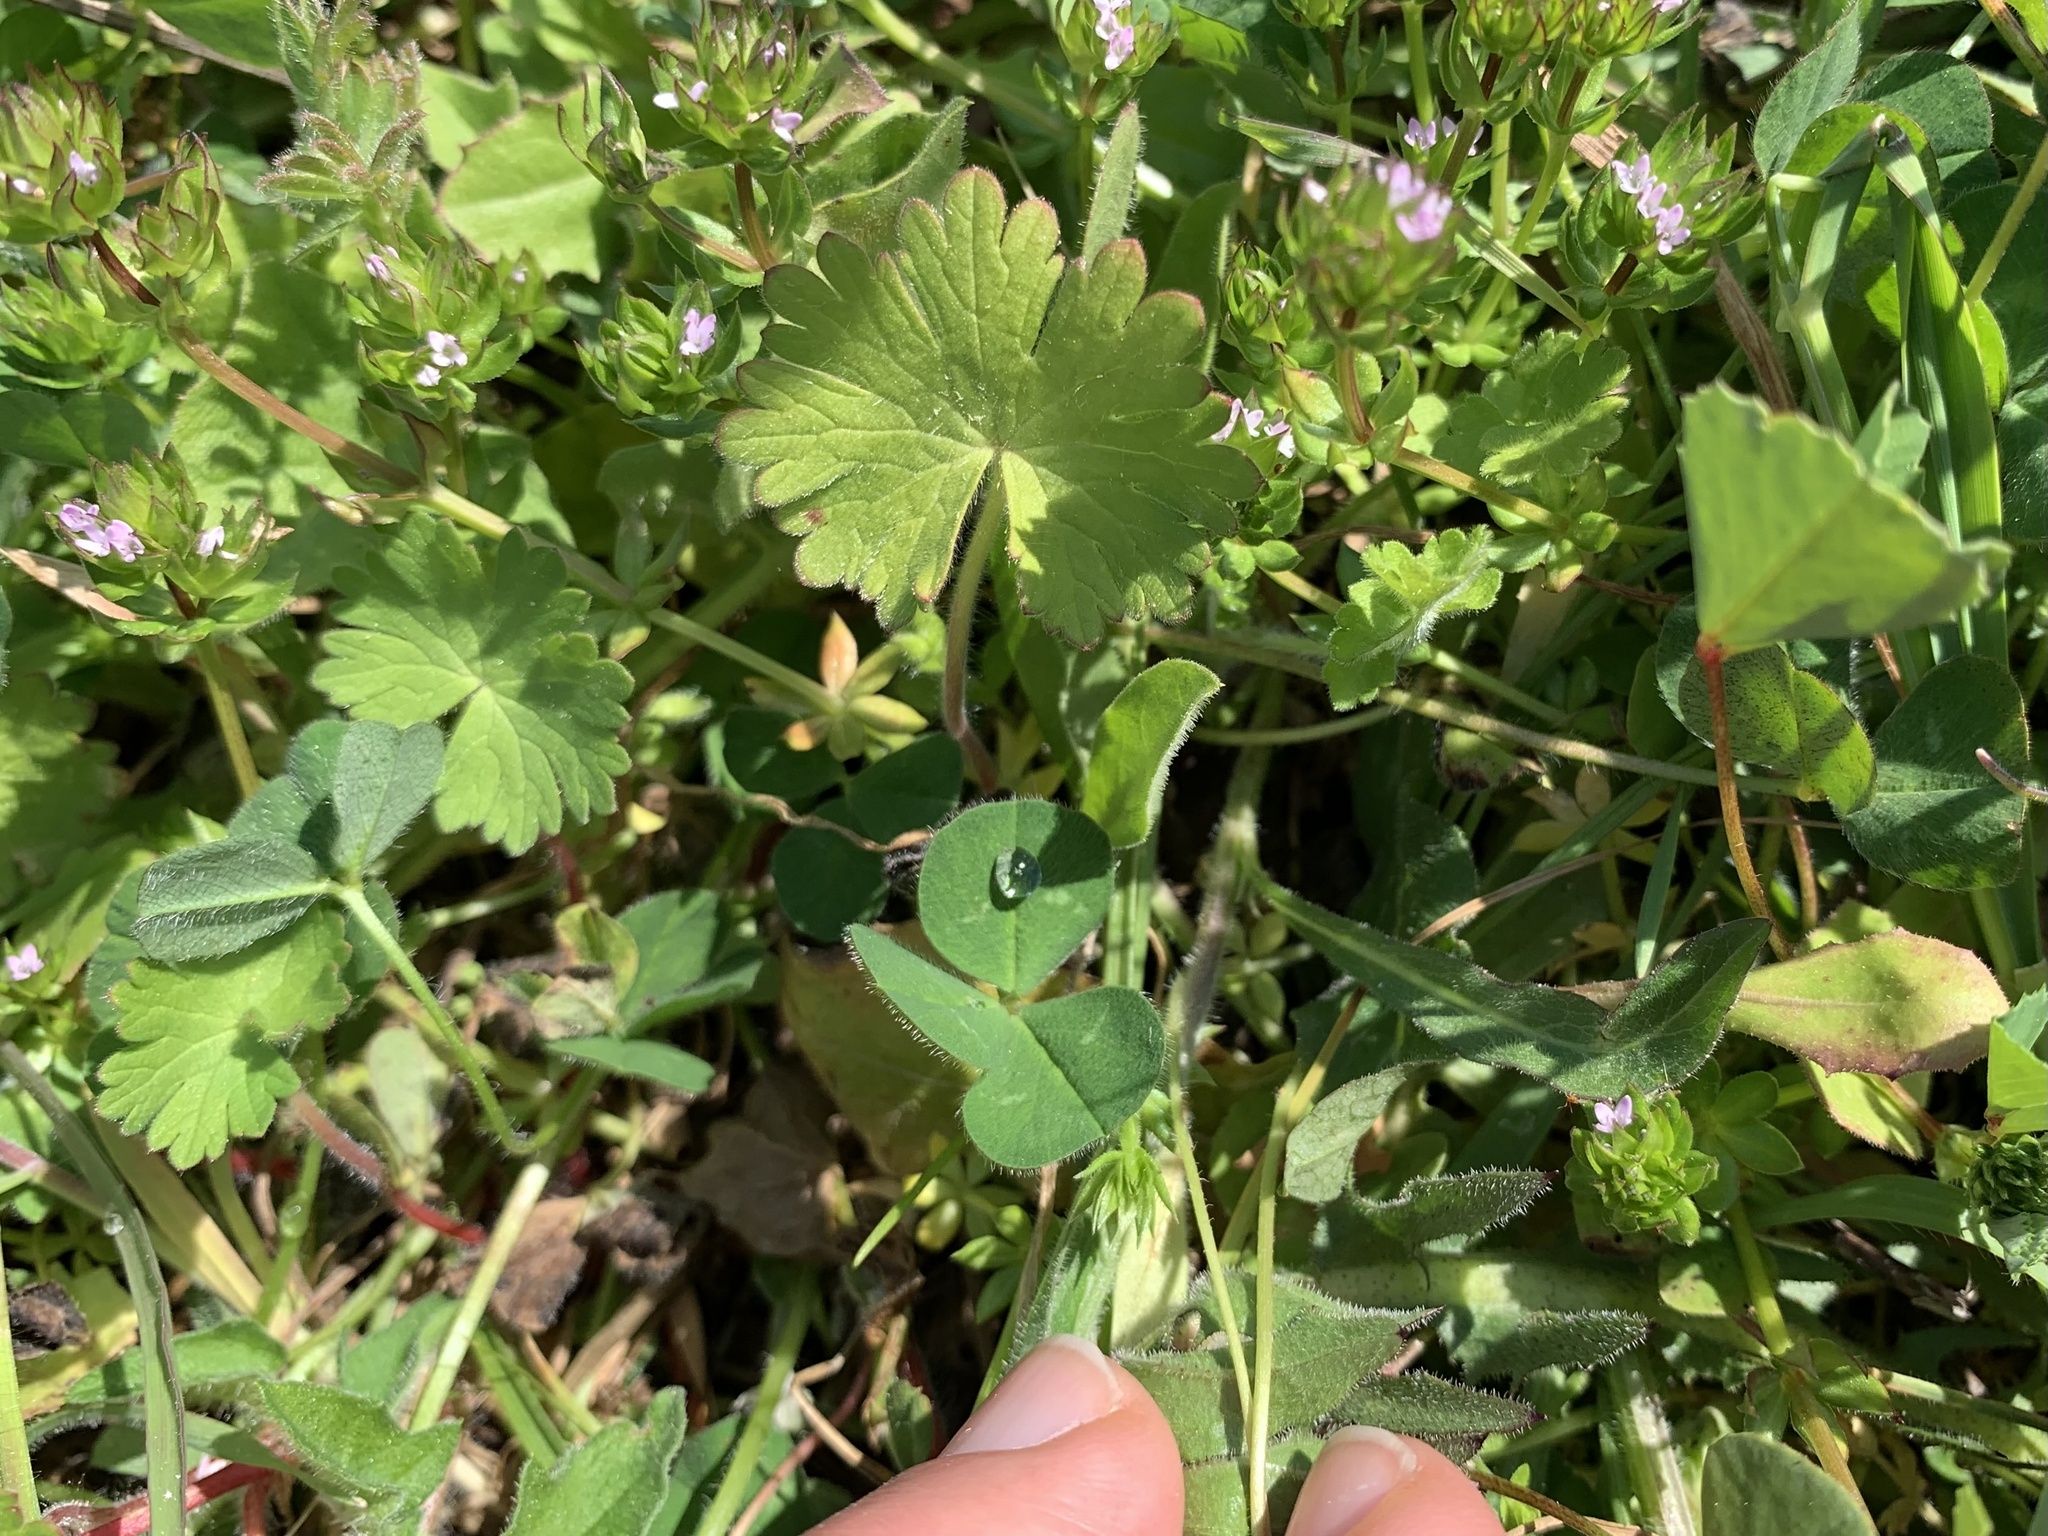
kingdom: Plantae
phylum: Tracheophyta
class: Magnoliopsida
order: Geraniales
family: Geraniaceae
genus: Geranium
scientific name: Geranium molle
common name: Dove's-foot crane's-bill
